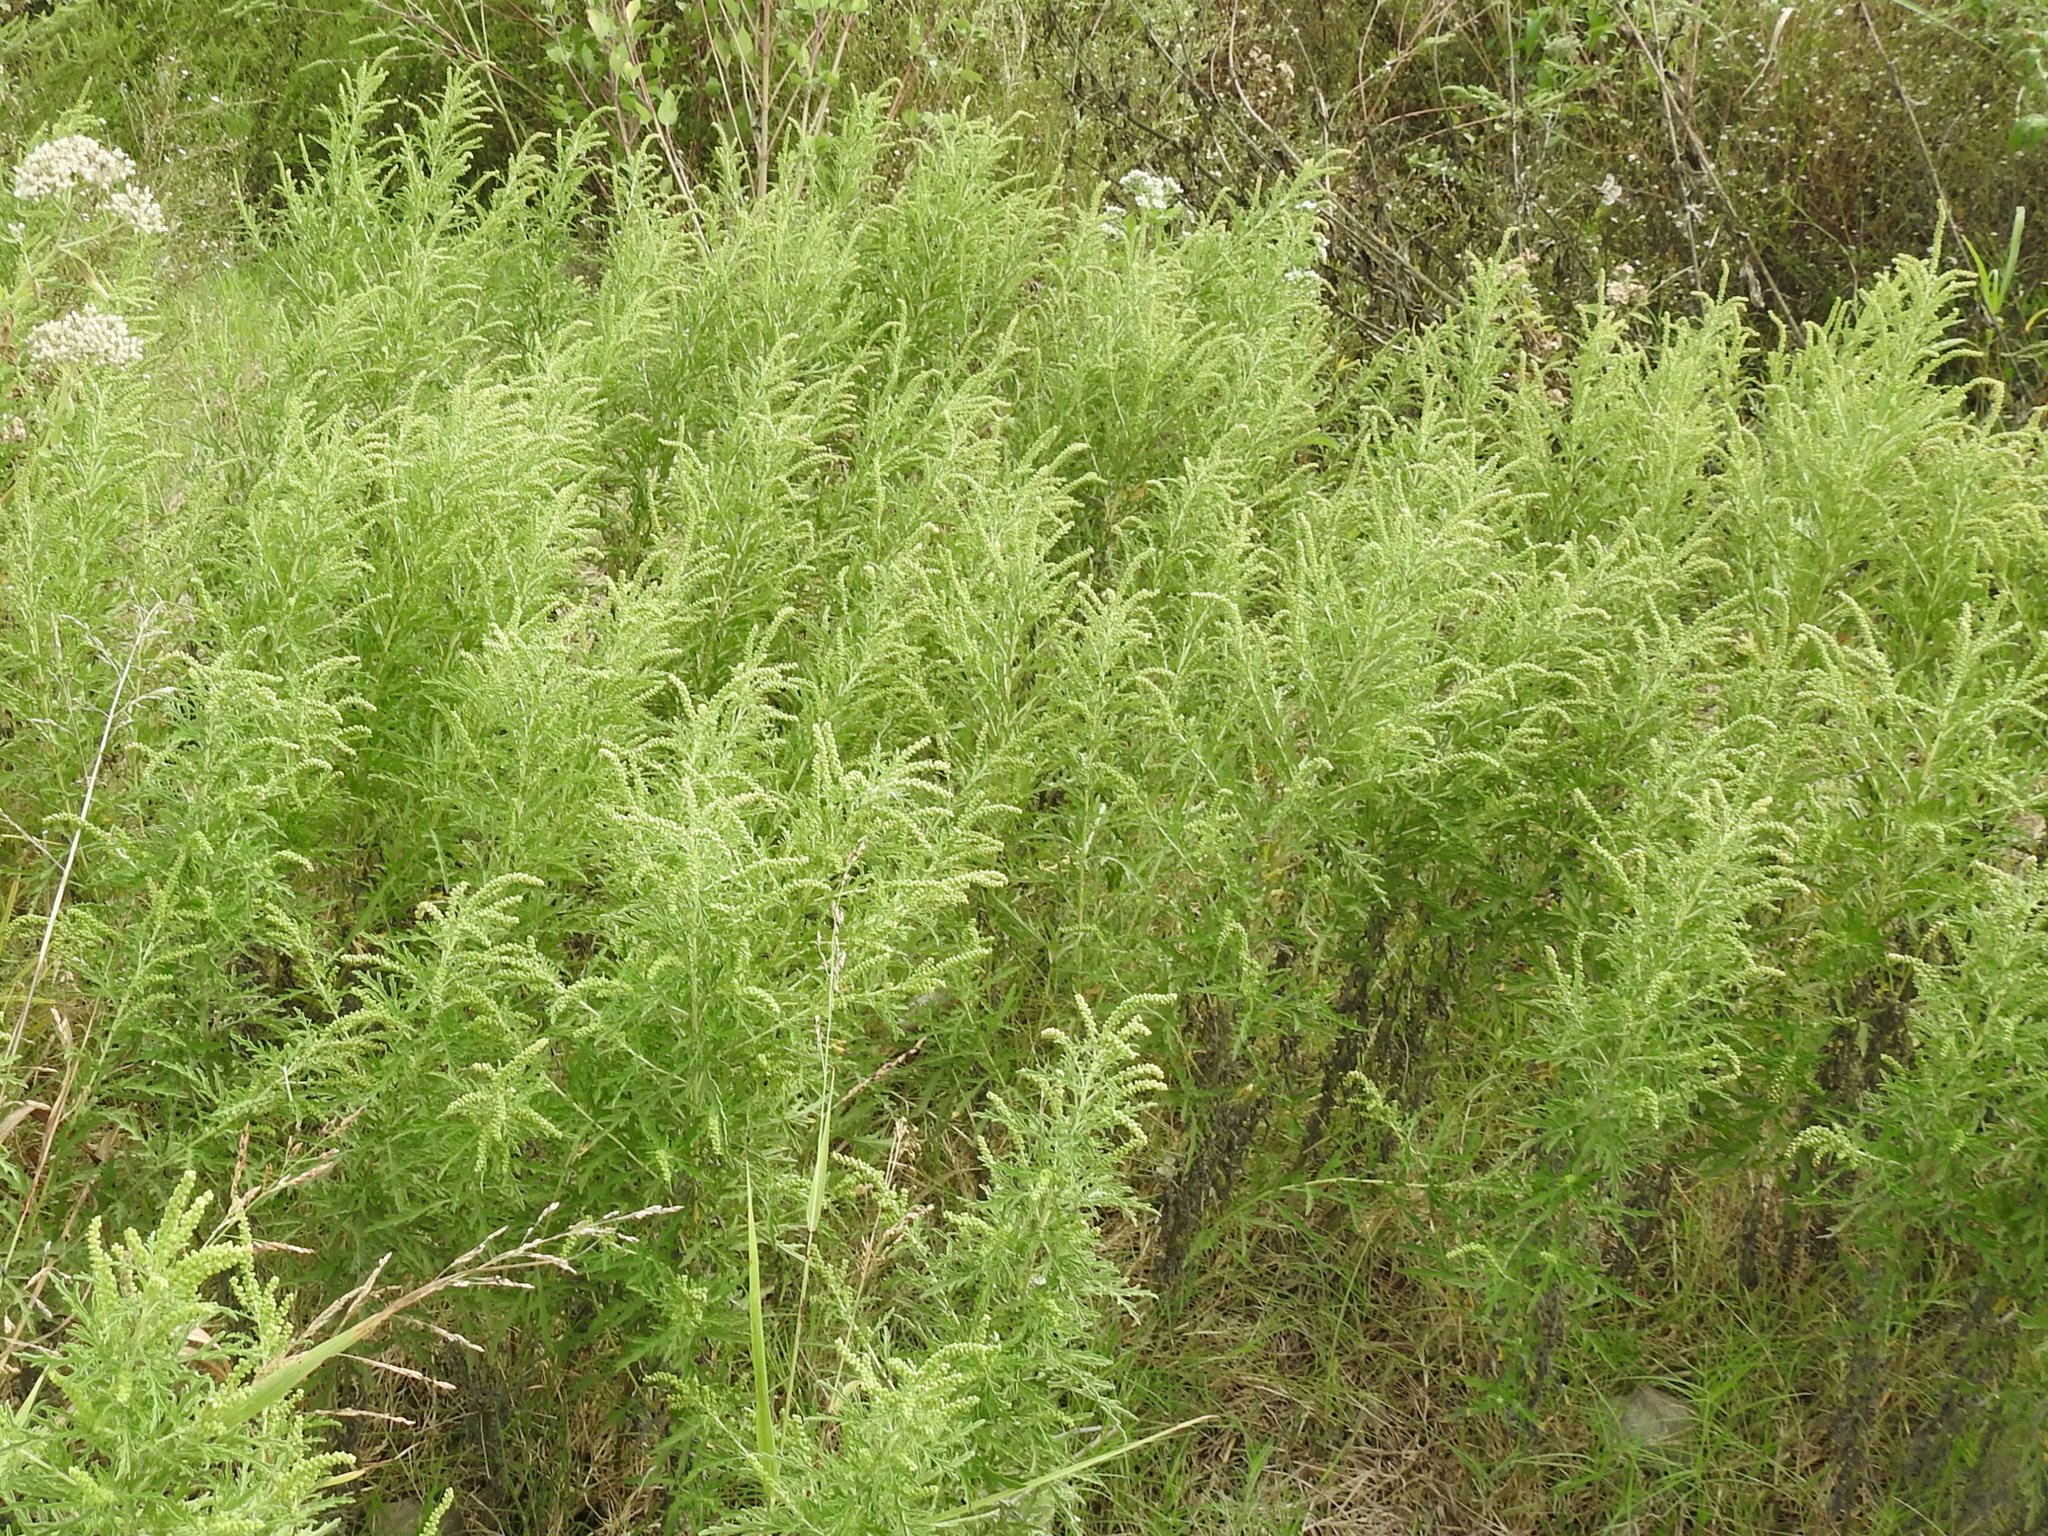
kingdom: Plantae
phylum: Tracheophyta
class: Magnoliopsida
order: Asterales
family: Asteraceae
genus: Ambrosia
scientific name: Ambrosia psilostachya
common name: Perennial ragweed
